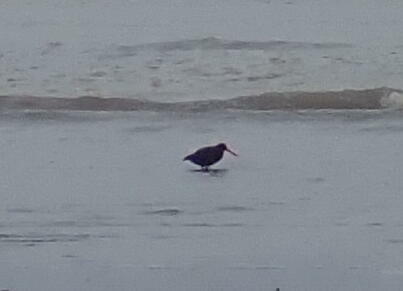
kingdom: Animalia
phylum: Chordata
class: Aves
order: Charadriiformes
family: Haematopodidae
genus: Haematopus
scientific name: Haematopus unicolor
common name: Variable oystercatcher
